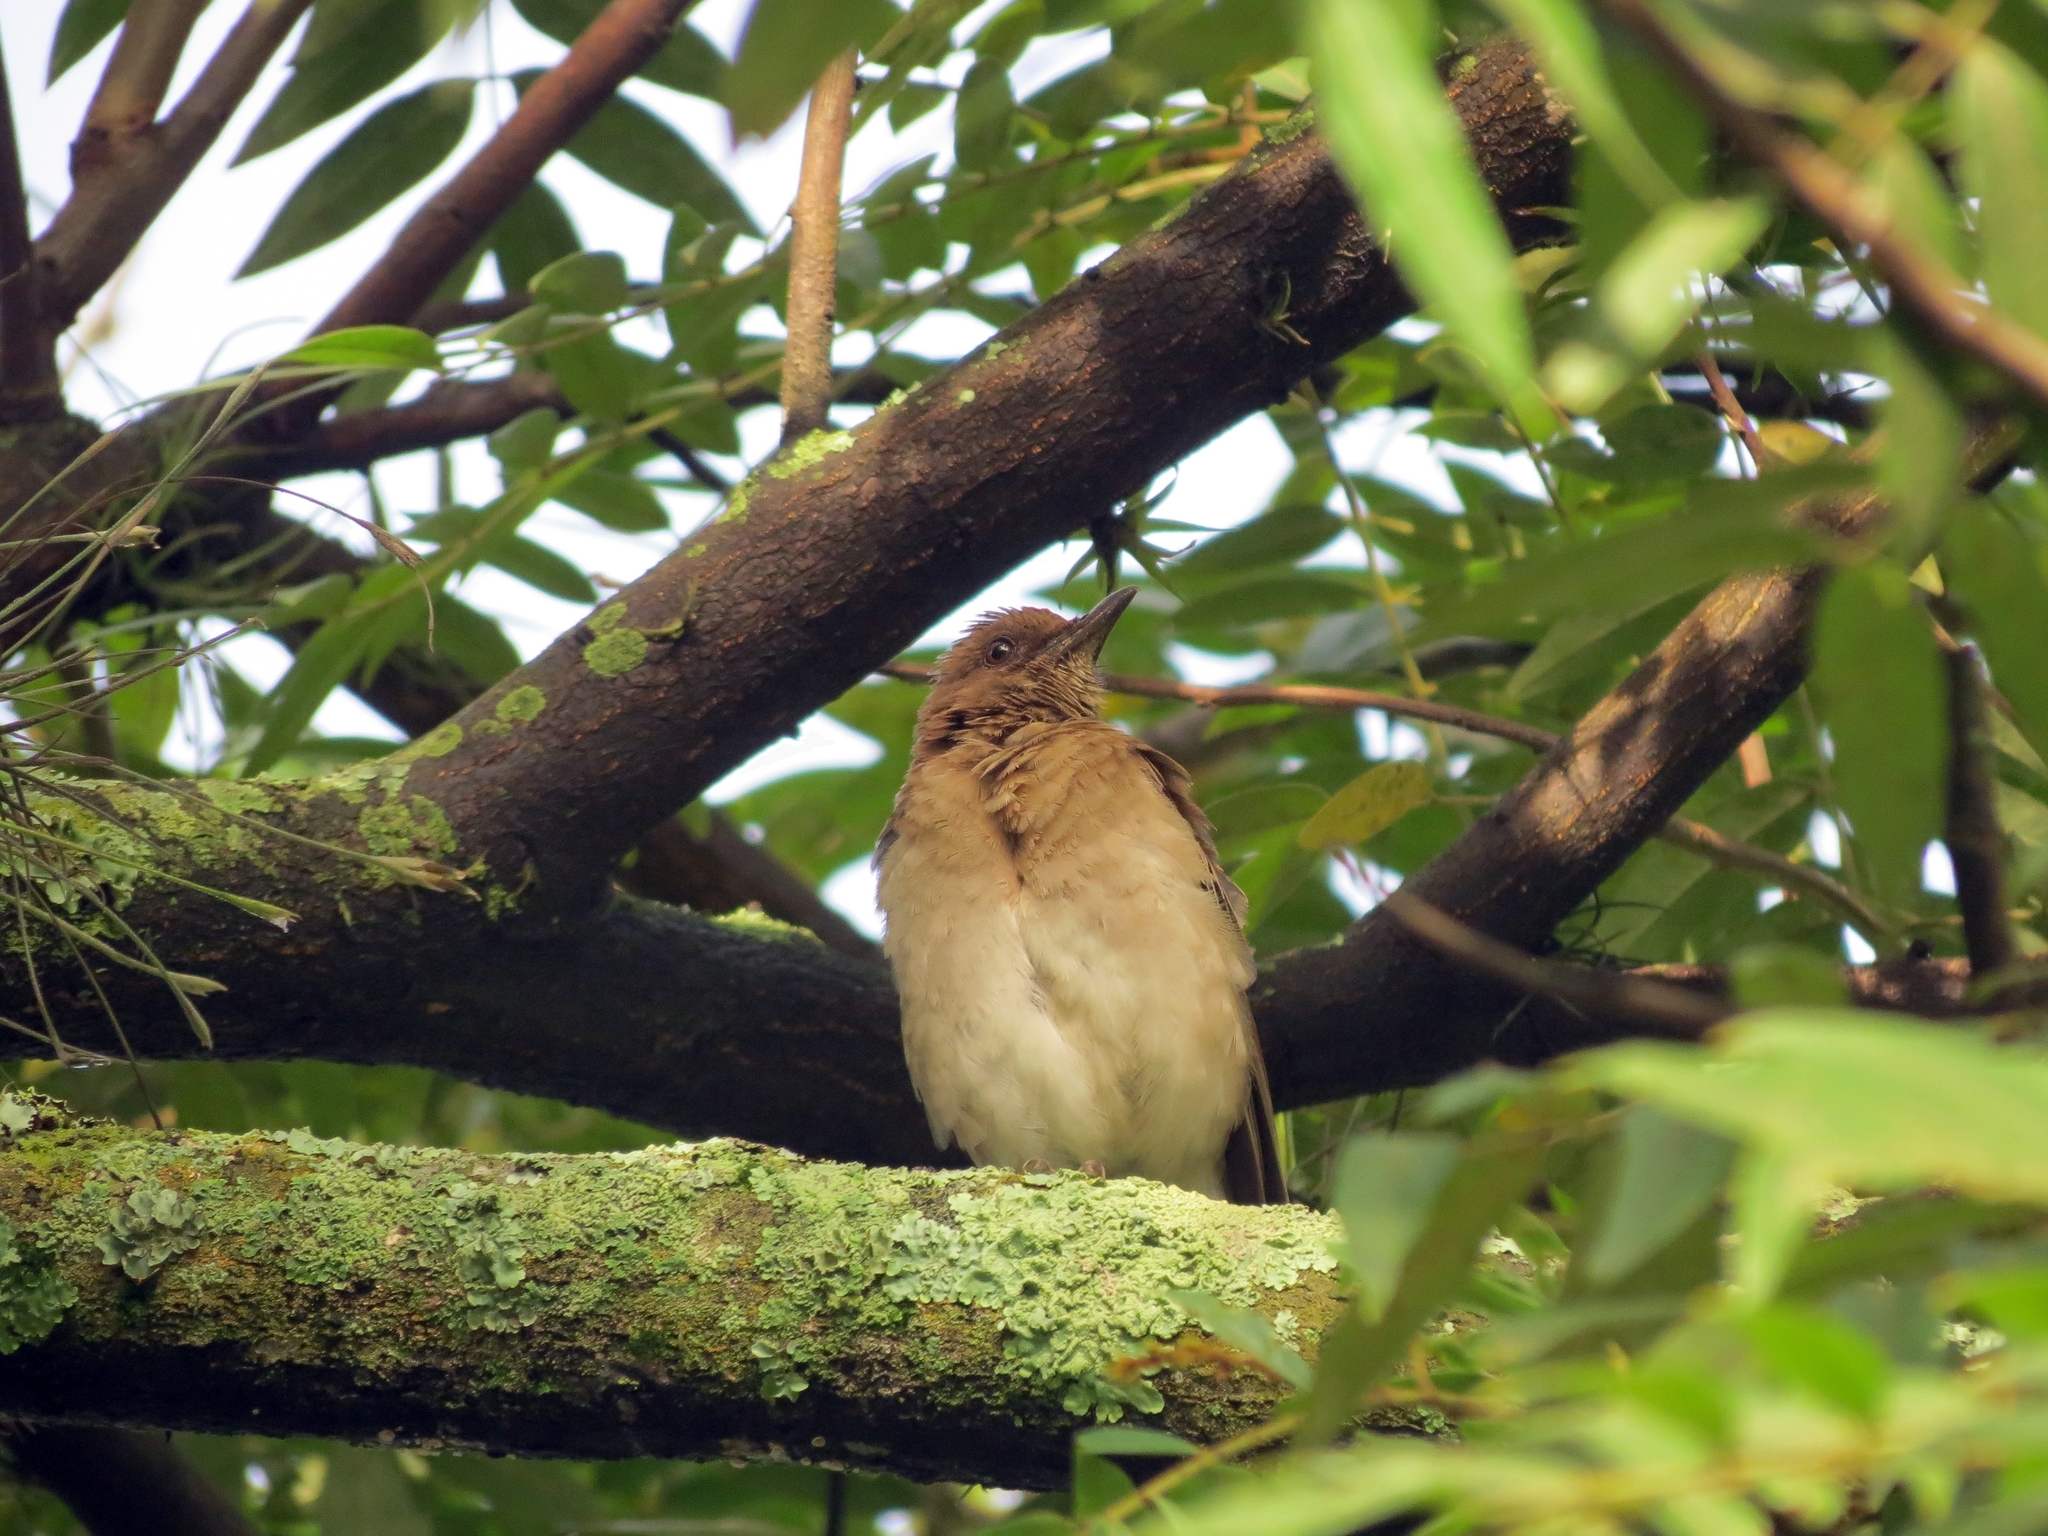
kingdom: Animalia
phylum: Chordata
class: Aves
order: Passeriformes
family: Turdidae
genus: Turdus
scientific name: Turdus ignobilis
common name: Black-billed thrush
